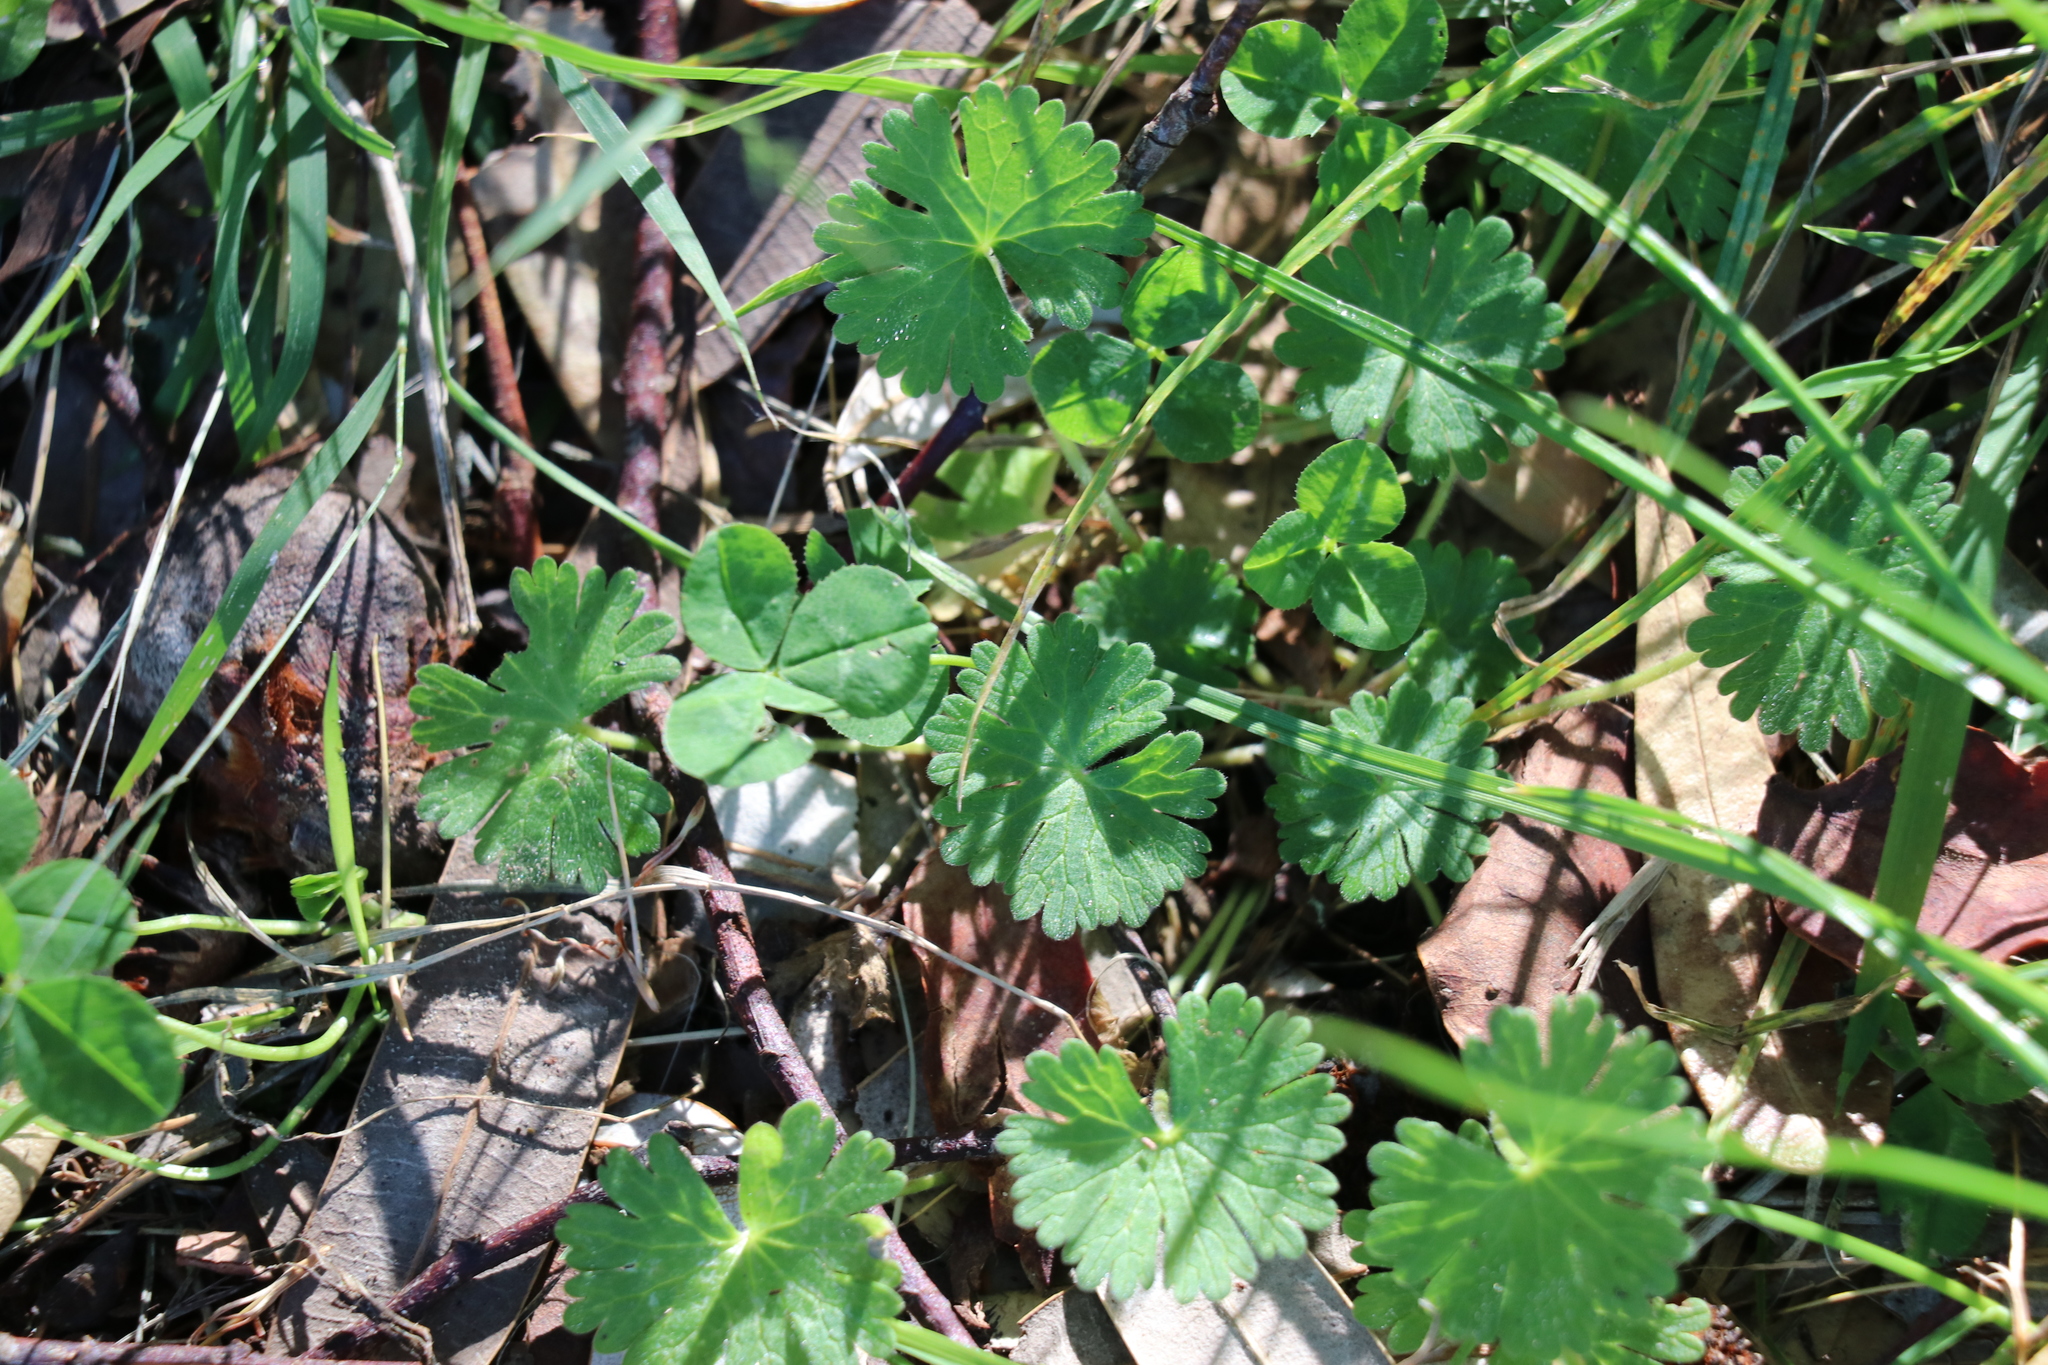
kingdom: Plantae
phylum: Tracheophyta
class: Magnoliopsida
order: Geraniales
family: Geraniaceae
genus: Geranium
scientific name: Geranium molle
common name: Dove's-foot crane's-bill
